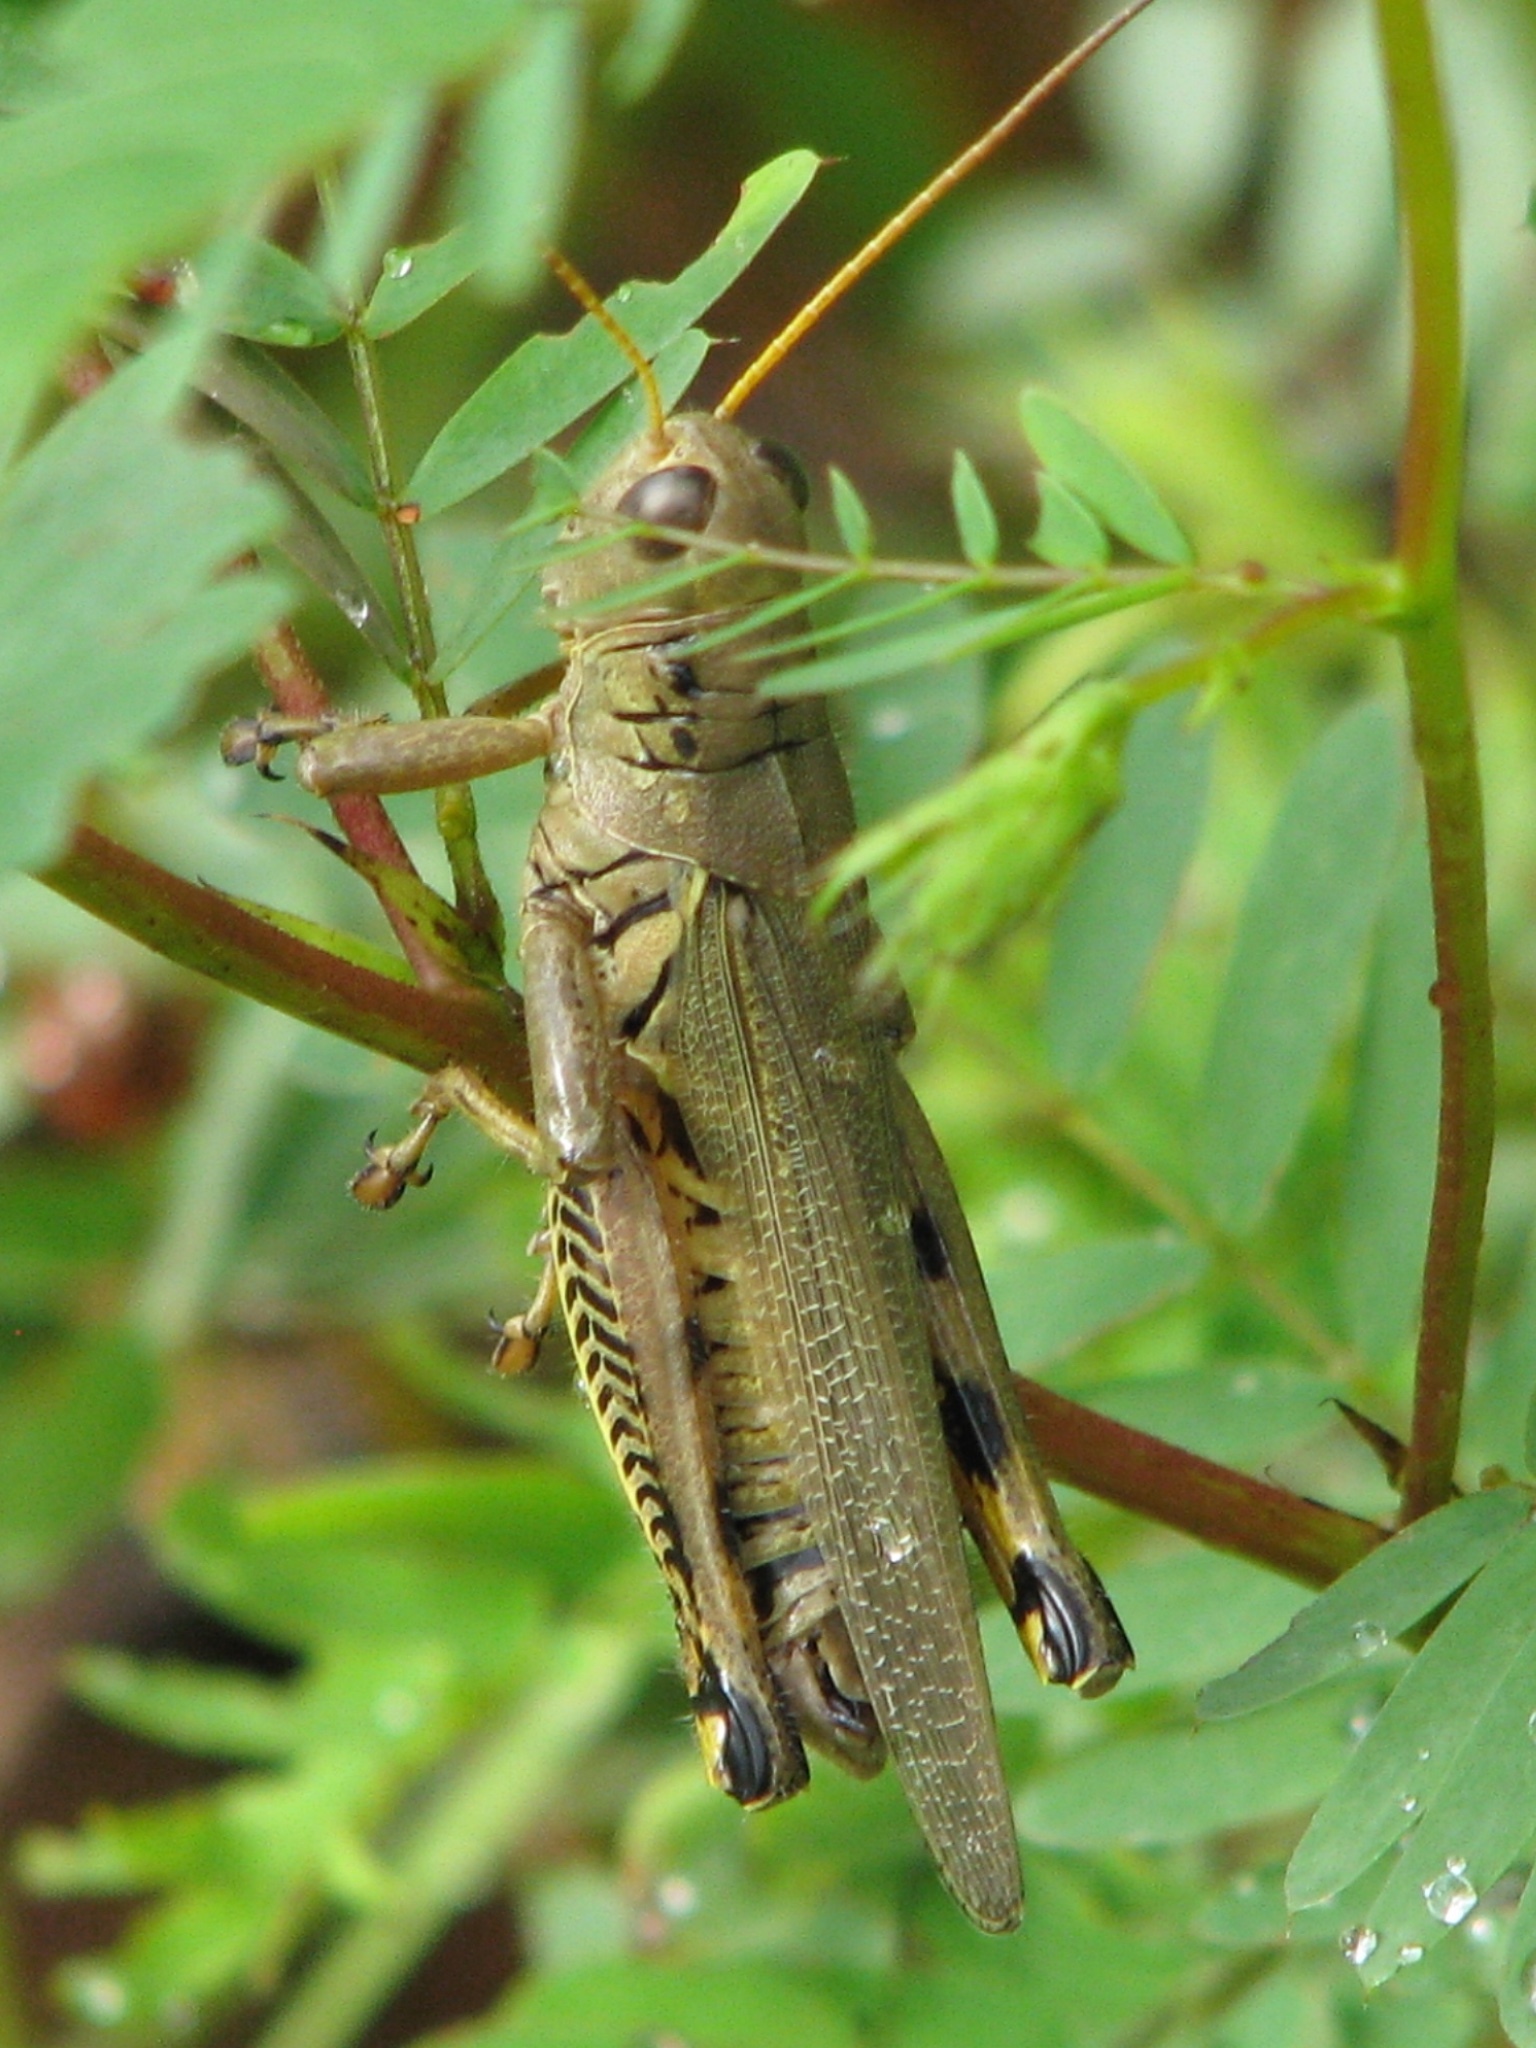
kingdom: Animalia
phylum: Arthropoda
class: Insecta
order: Orthoptera
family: Acrididae
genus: Melanoplus
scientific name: Melanoplus differentialis
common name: Differential grasshopper
